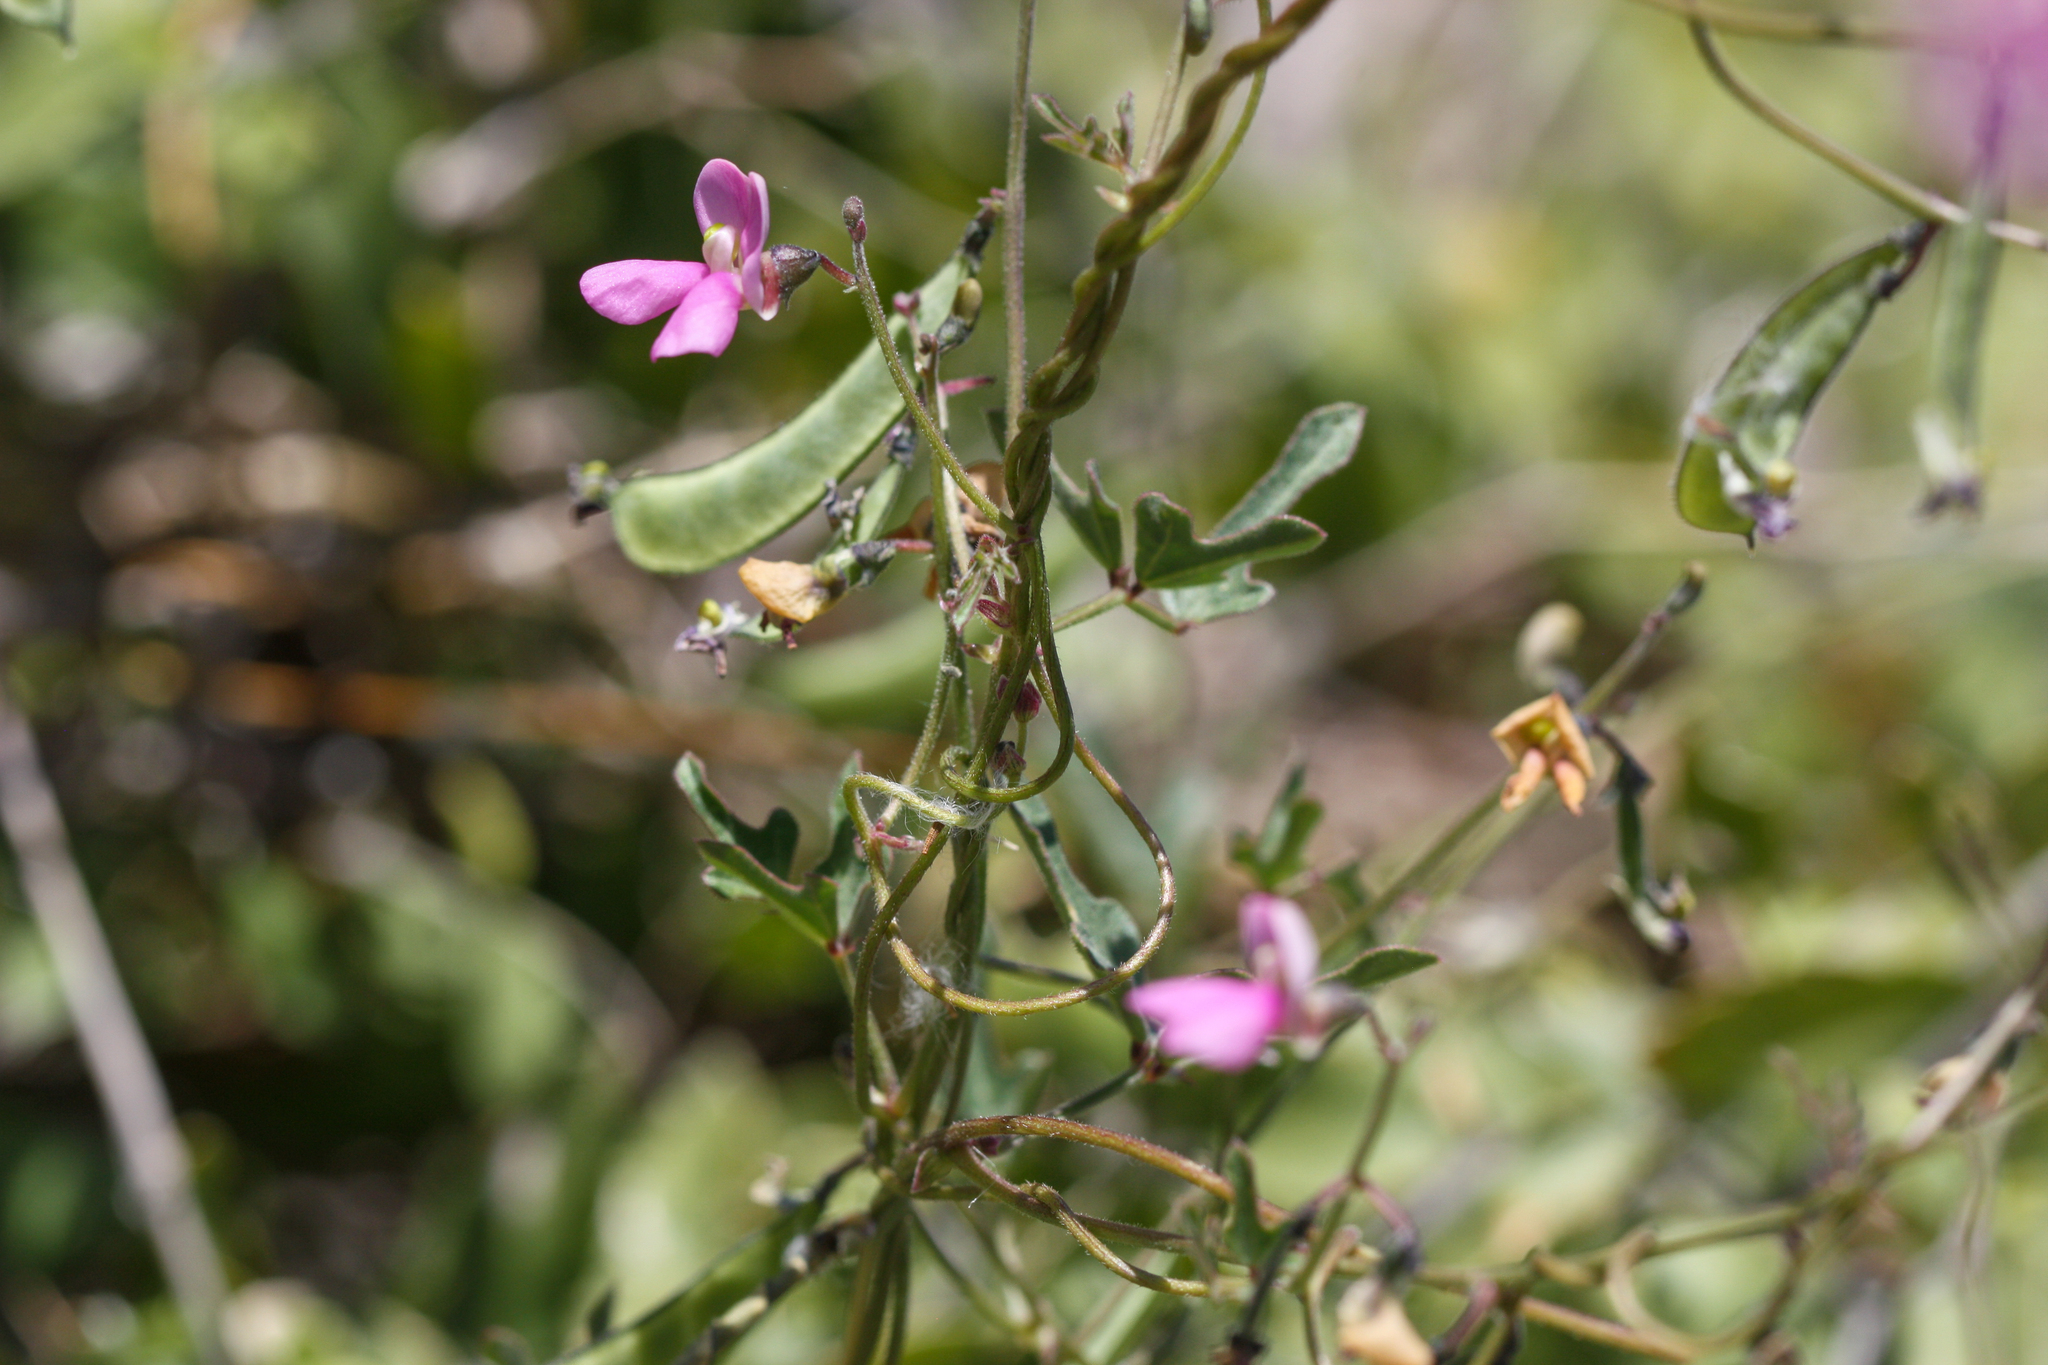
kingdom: Plantae
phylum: Tracheophyta
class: Magnoliopsida
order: Fabales
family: Fabaceae
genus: Phaseolus
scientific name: Phaseolus filiformis
